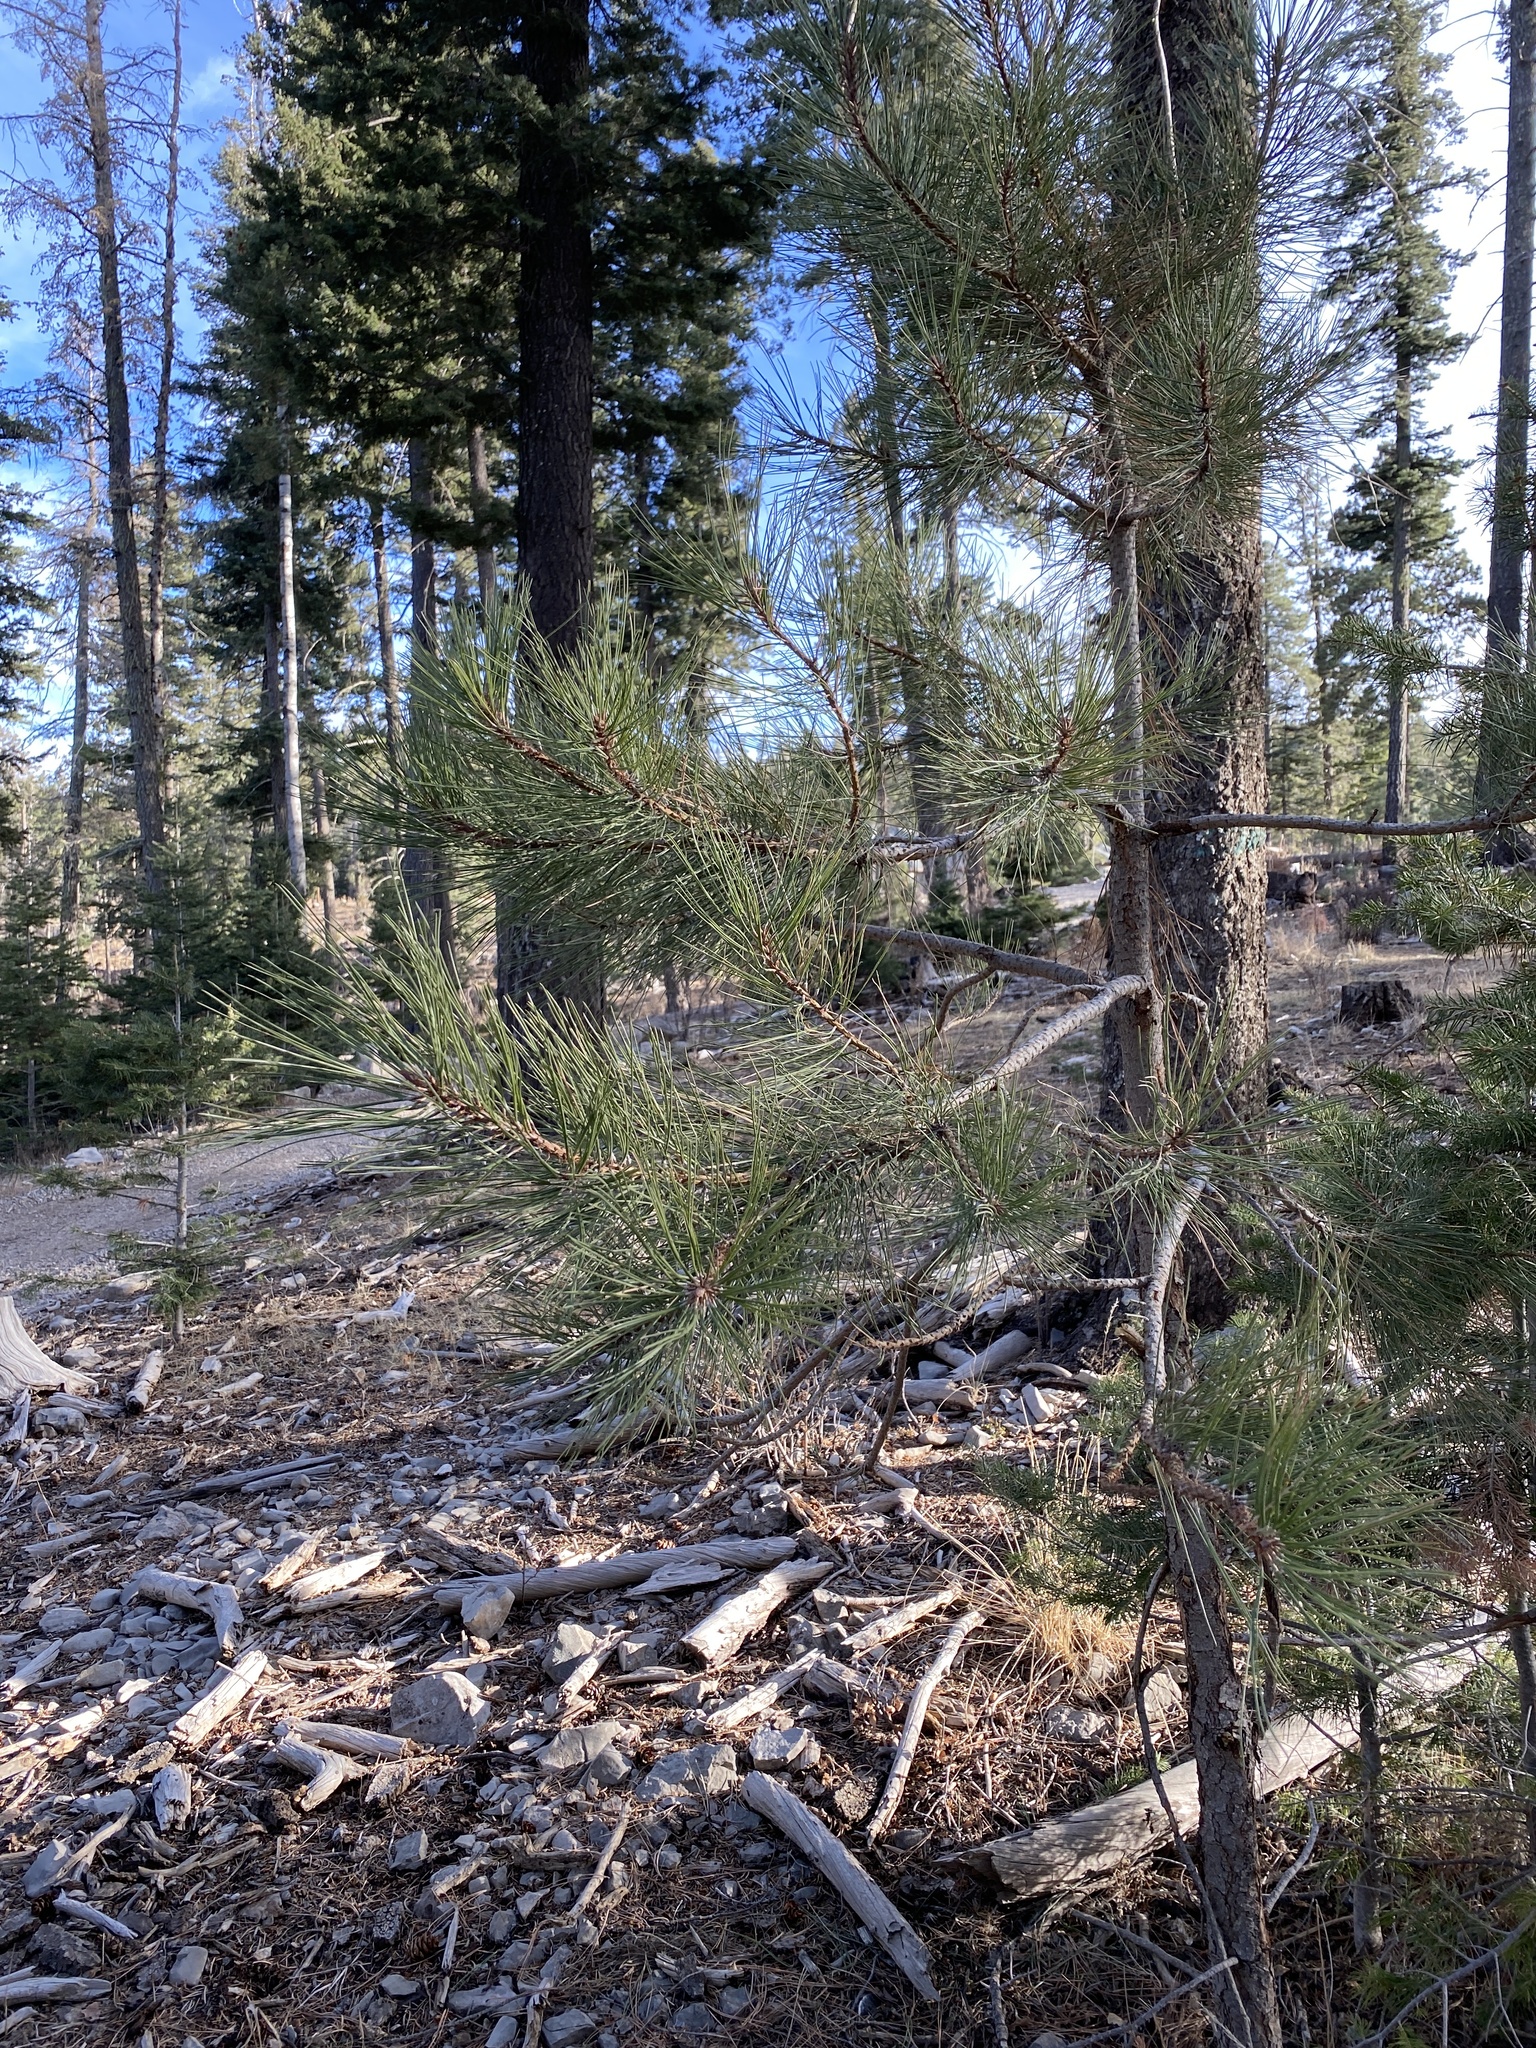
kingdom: Plantae
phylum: Tracheophyta
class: Pinopsida
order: Pinales
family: Pinaceae
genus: Pinus
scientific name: Pinus ponderosa
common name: Western yellow-pine
